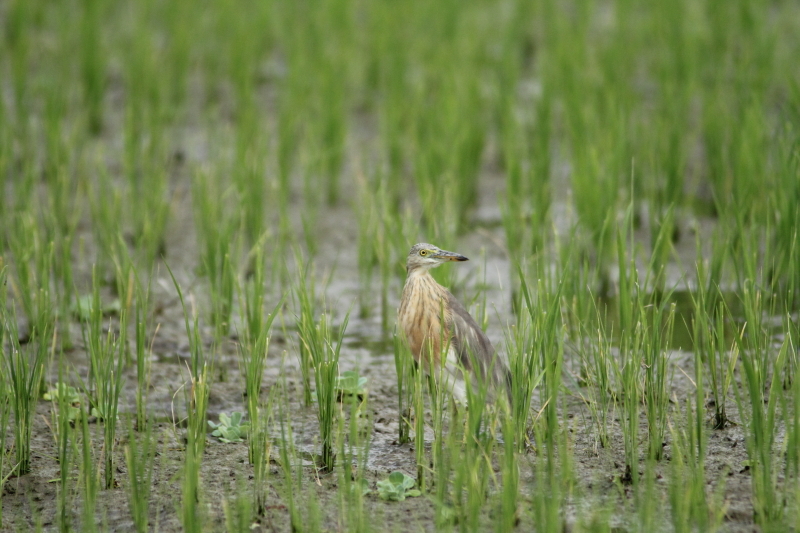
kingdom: Animalia
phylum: Chordata
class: Aves
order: Pelecaniformes
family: Ardeidae
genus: Ardeola
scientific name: Ardeola speciosa
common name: Javan pond heron
